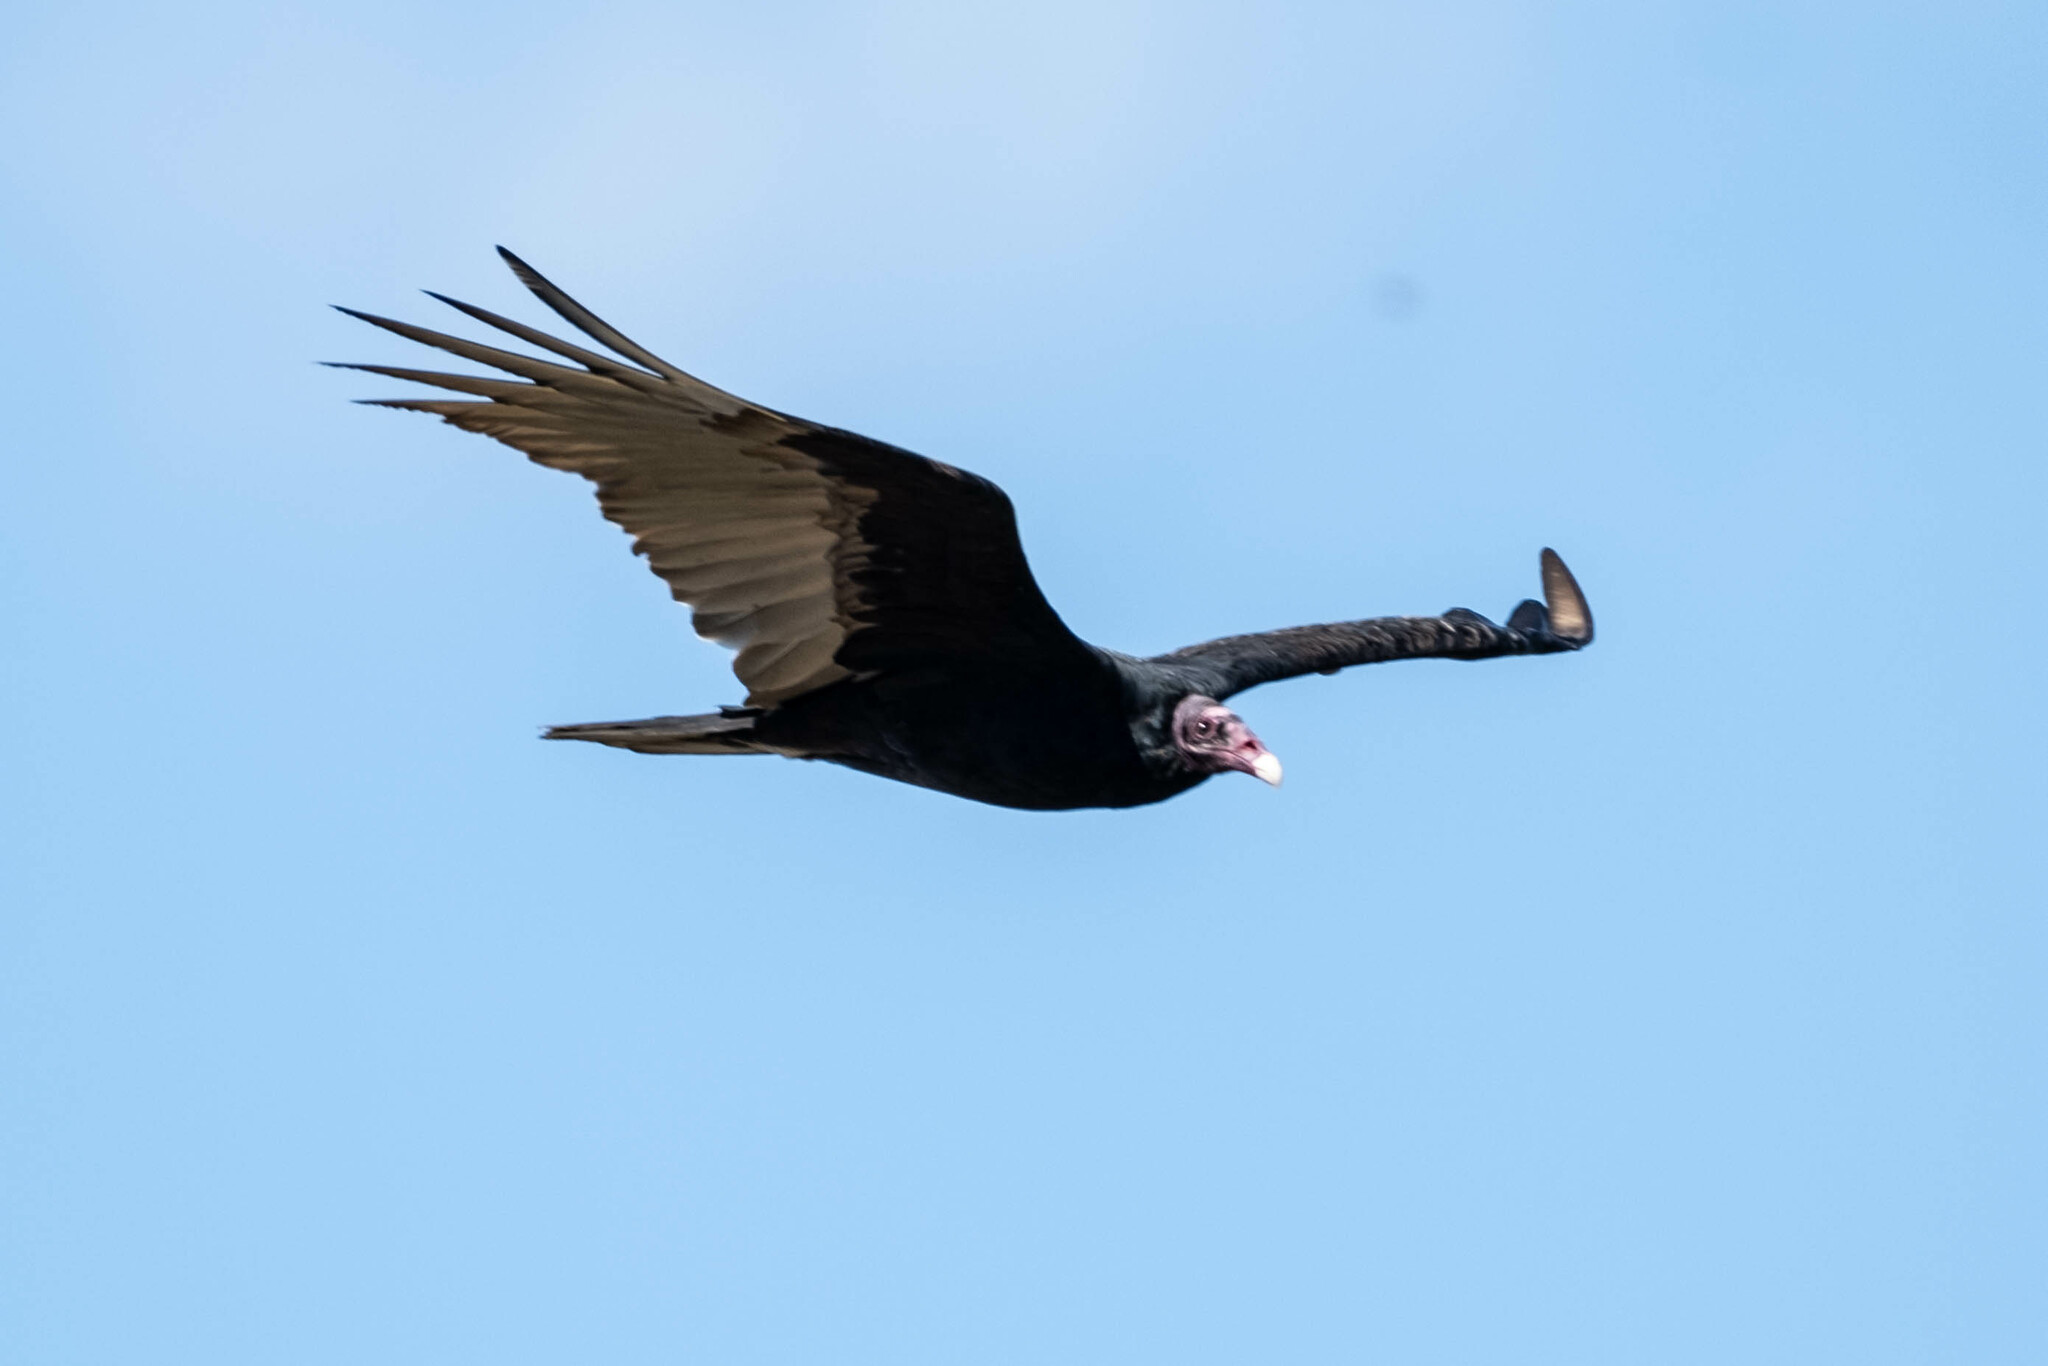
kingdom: Animalia
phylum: Chordata
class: Aves
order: Accipitriformes
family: Cathartidae
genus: Cathartes
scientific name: Cathartes aura
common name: Turkey vulture
